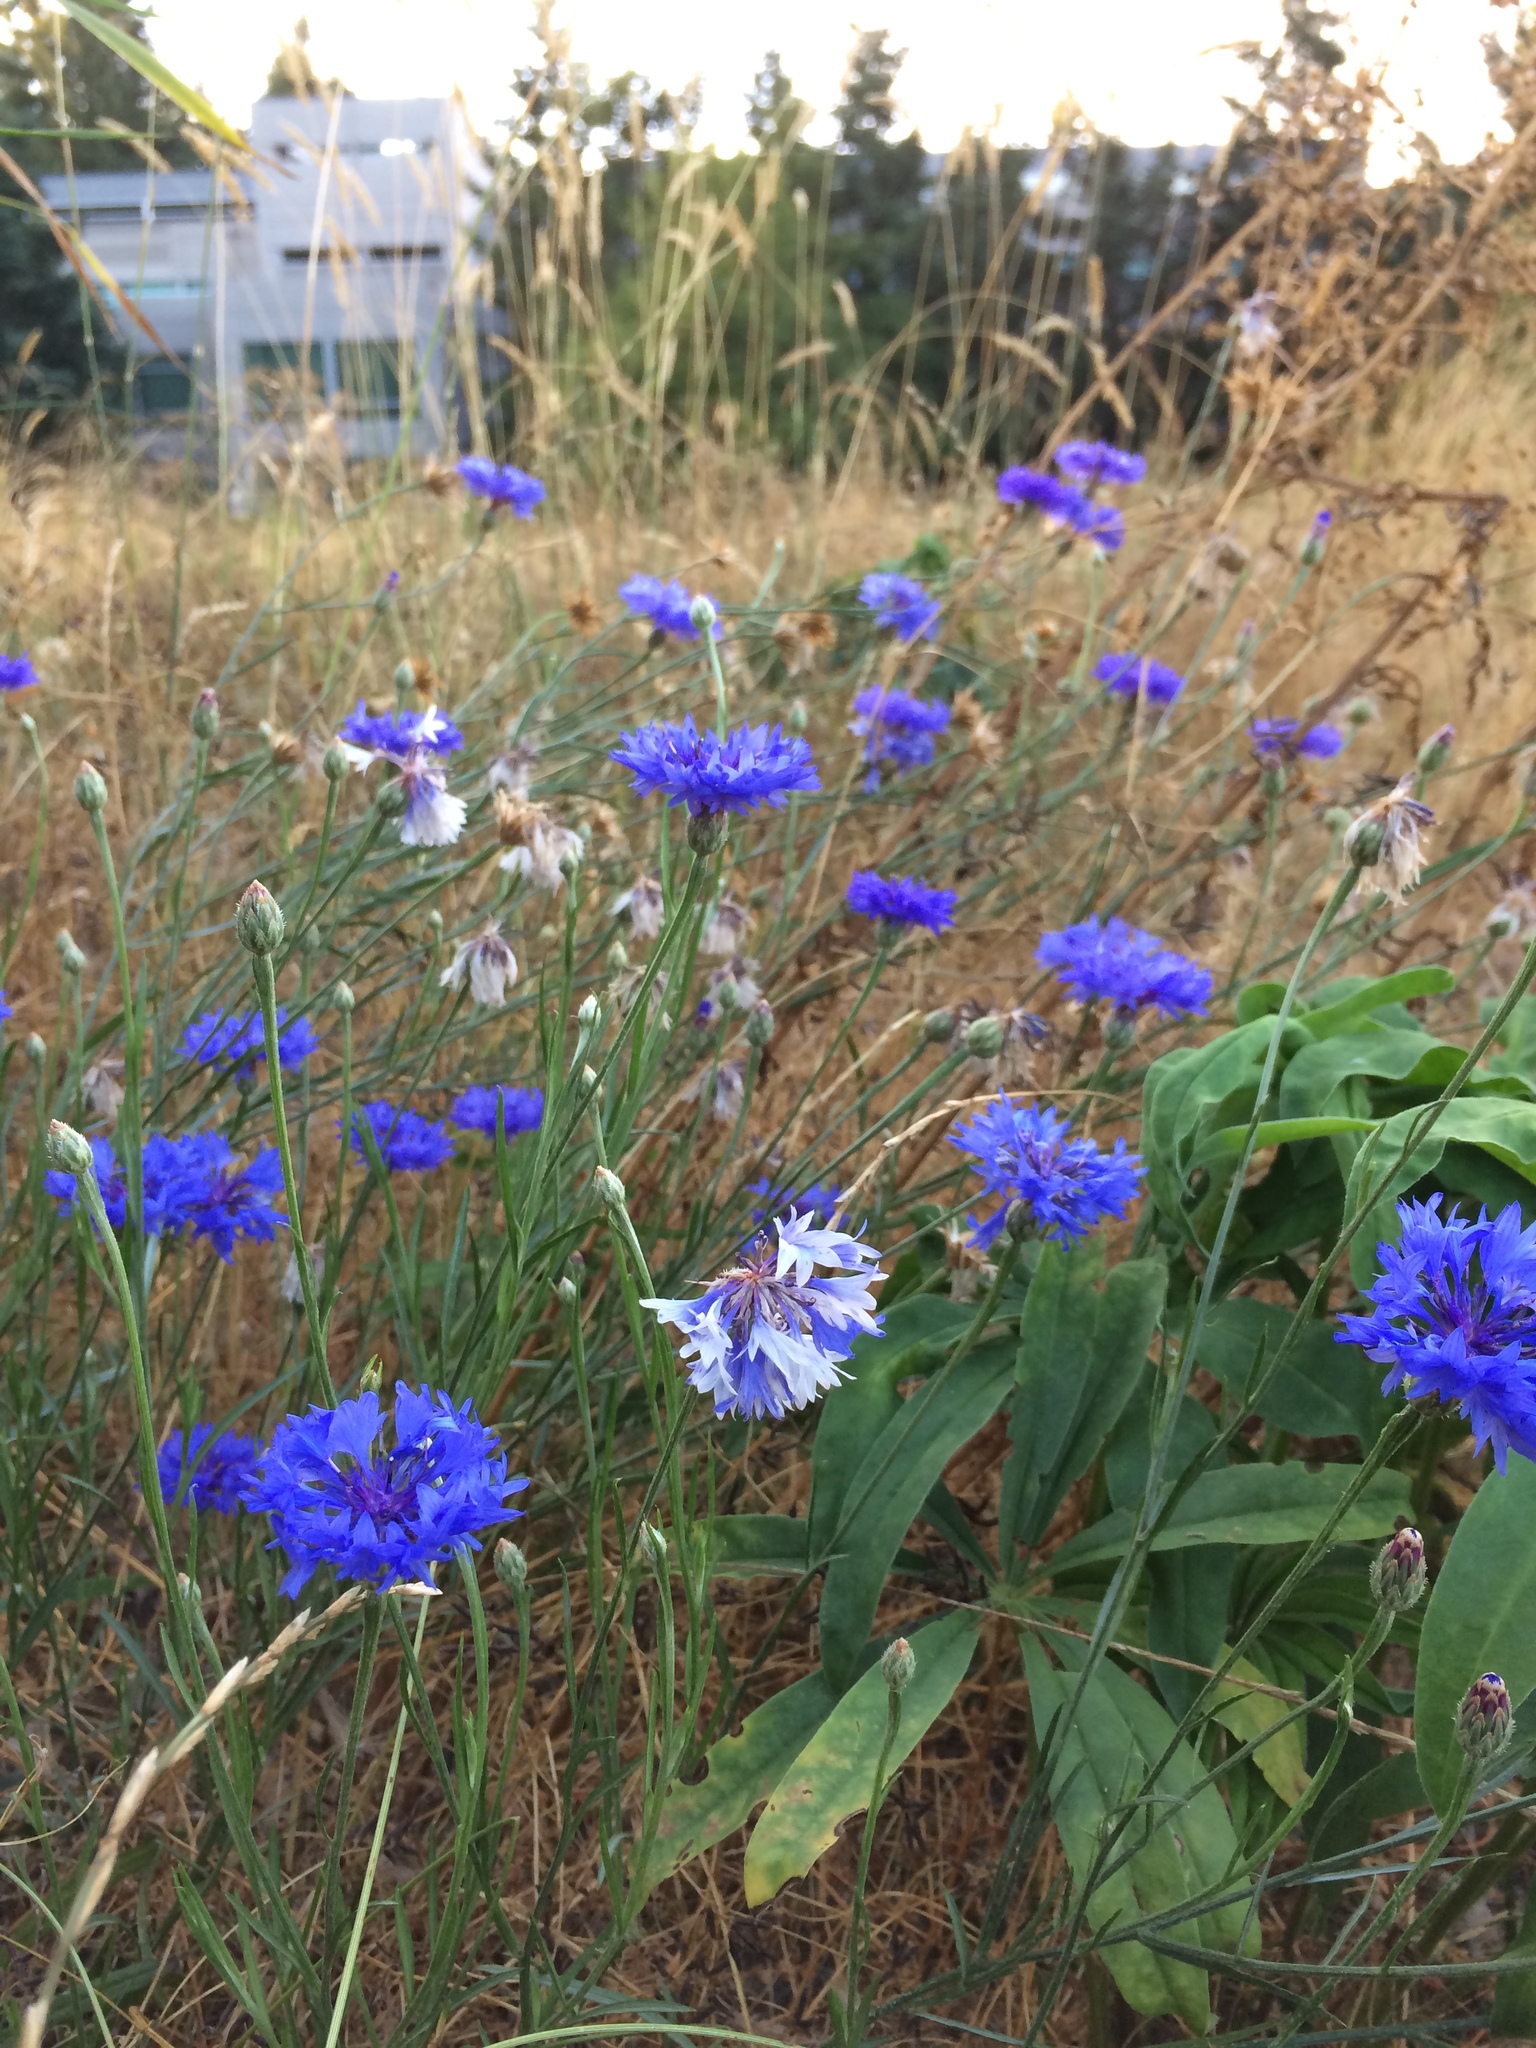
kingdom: Plantae
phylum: Tracheophyta
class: Magnoliopsida
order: Asterales
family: Asteraceae
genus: Centaurea
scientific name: Centaurea cyanus
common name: Cornflower
